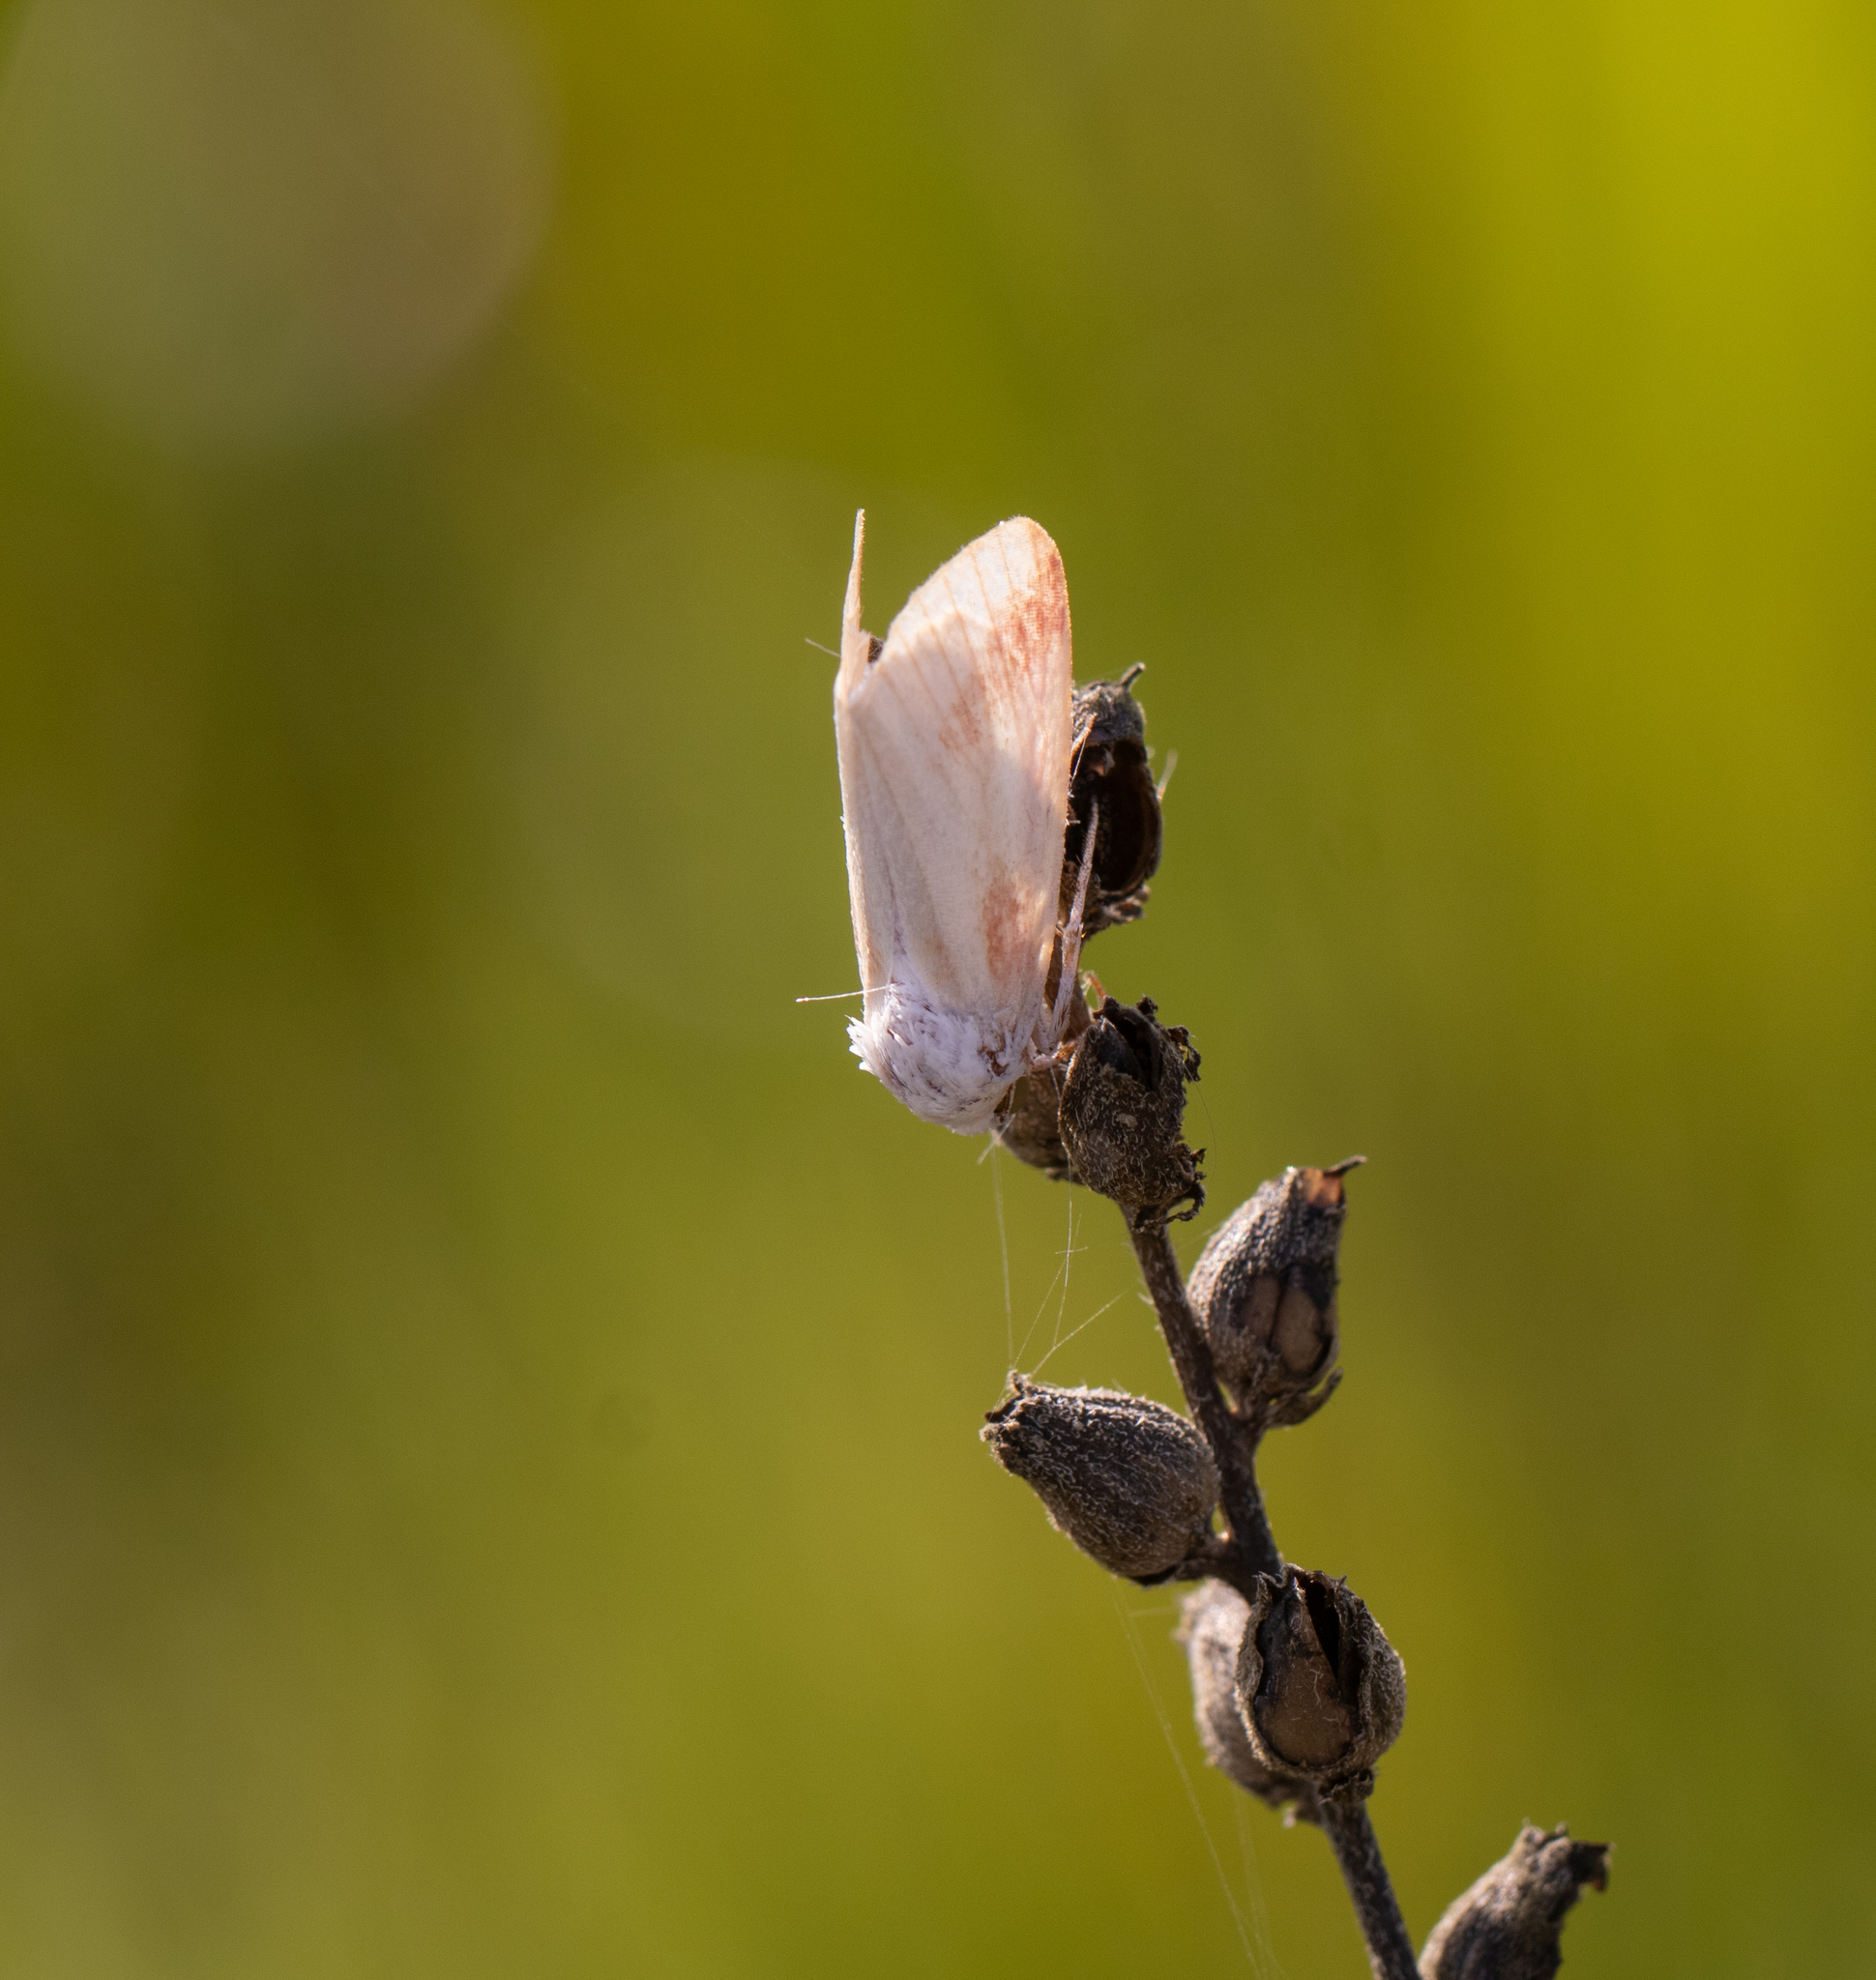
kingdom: Animalia
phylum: Arthropoda
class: Insecta
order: Lepidoptera
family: Noctuidae
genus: Schinia
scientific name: Schinia gaurae
